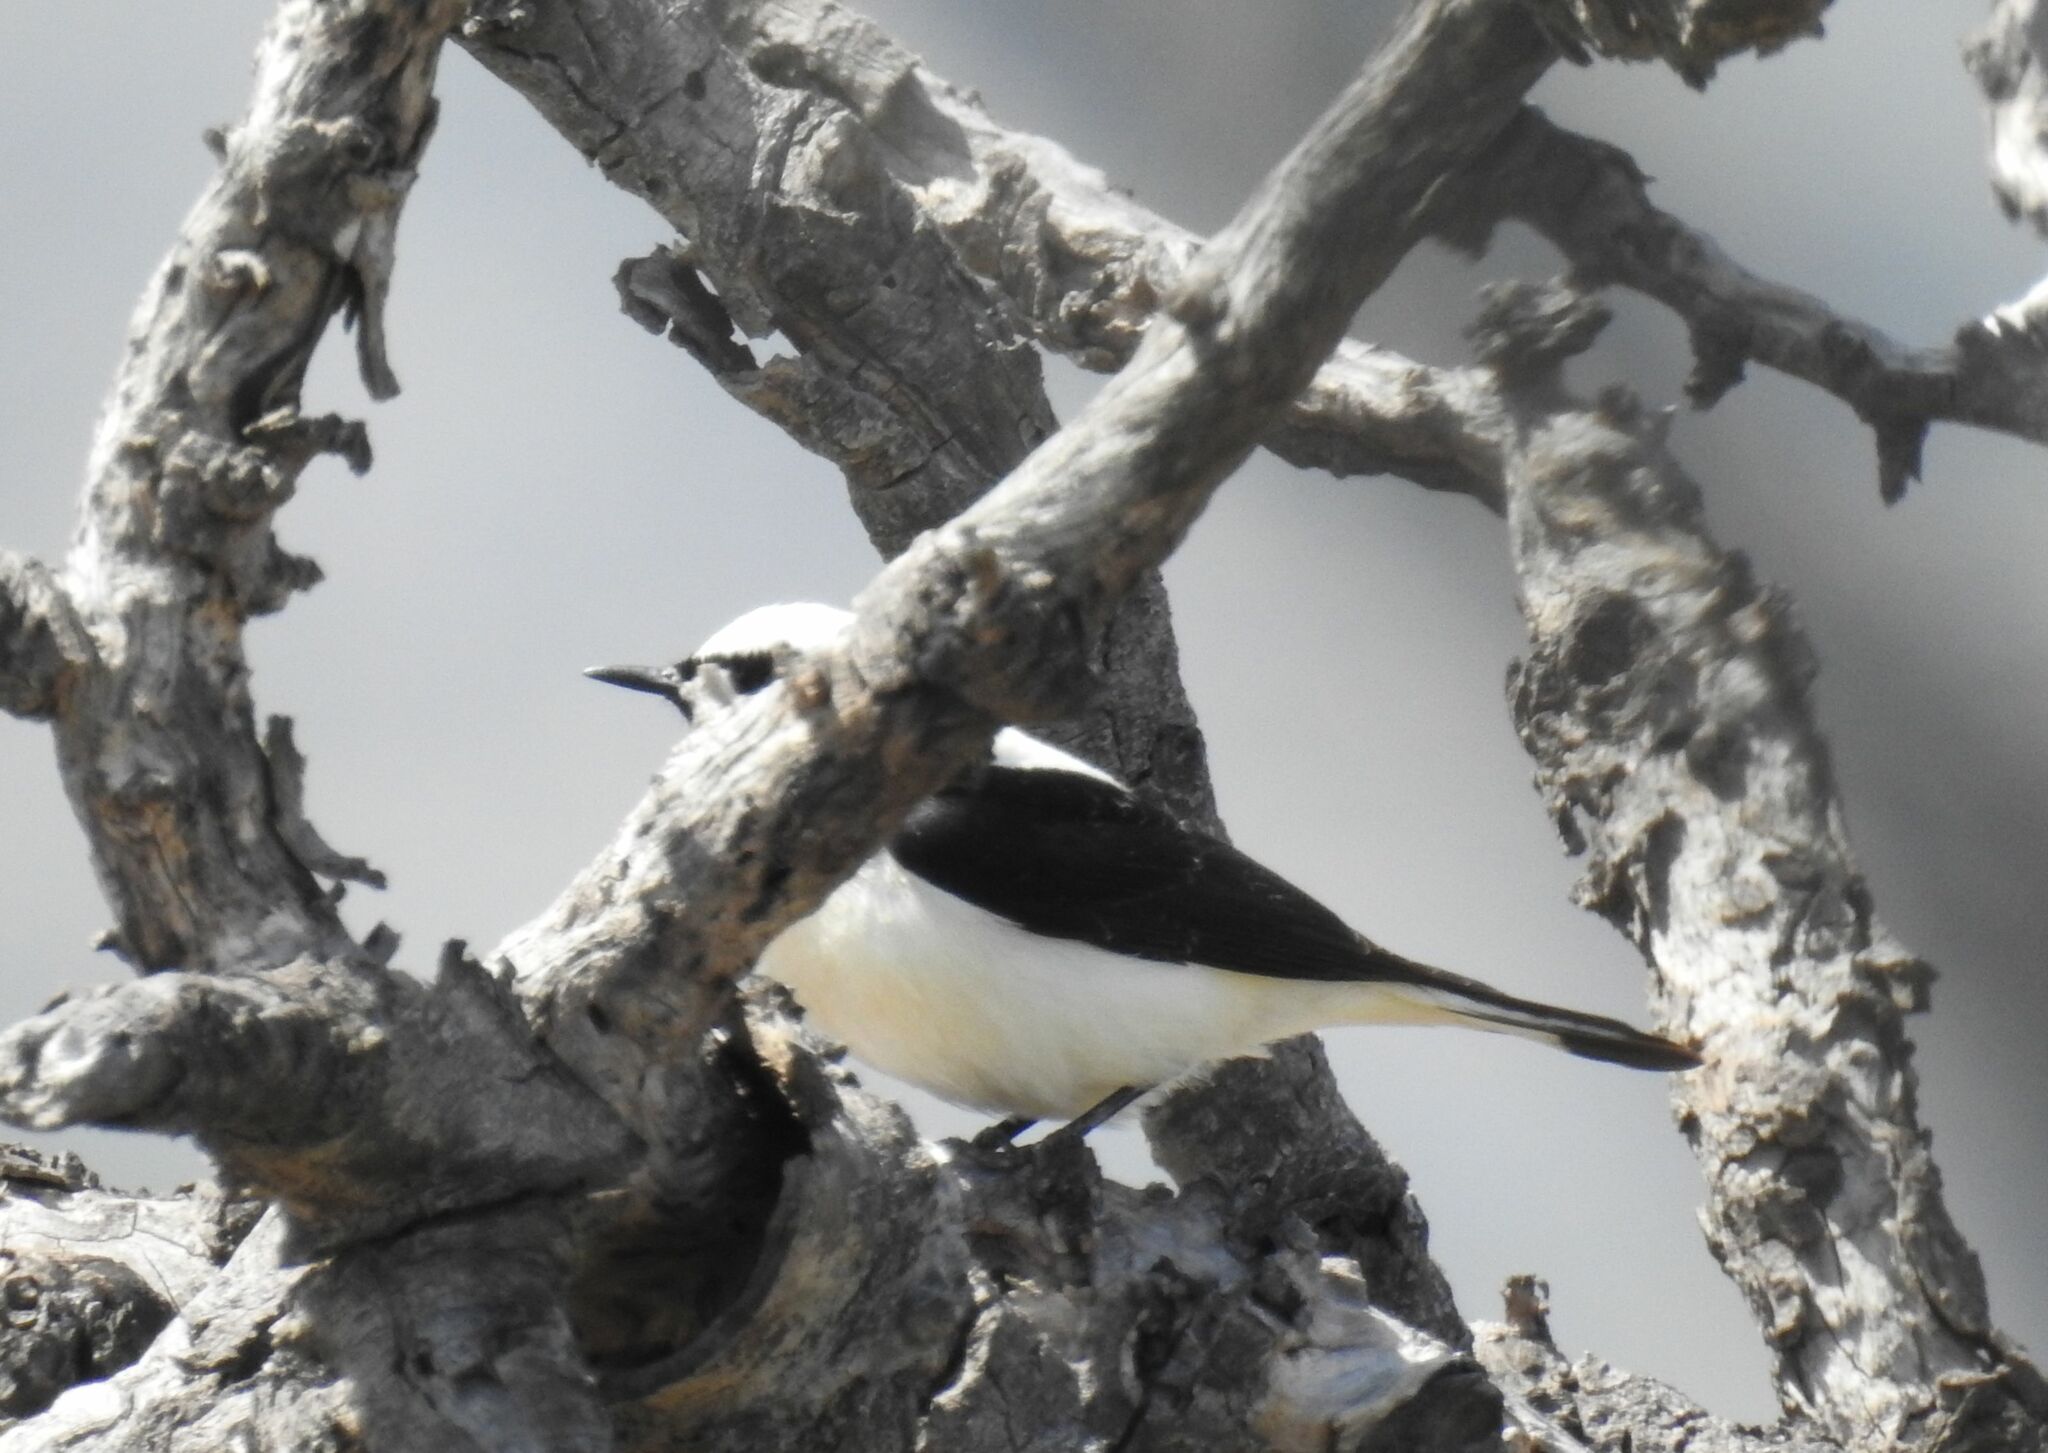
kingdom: Animalia
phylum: Chordata
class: Aves
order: Passeriformes
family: Muscicapidae
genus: Oenanthe
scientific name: Oenanthe hispanica
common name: Black-eared wheatear
